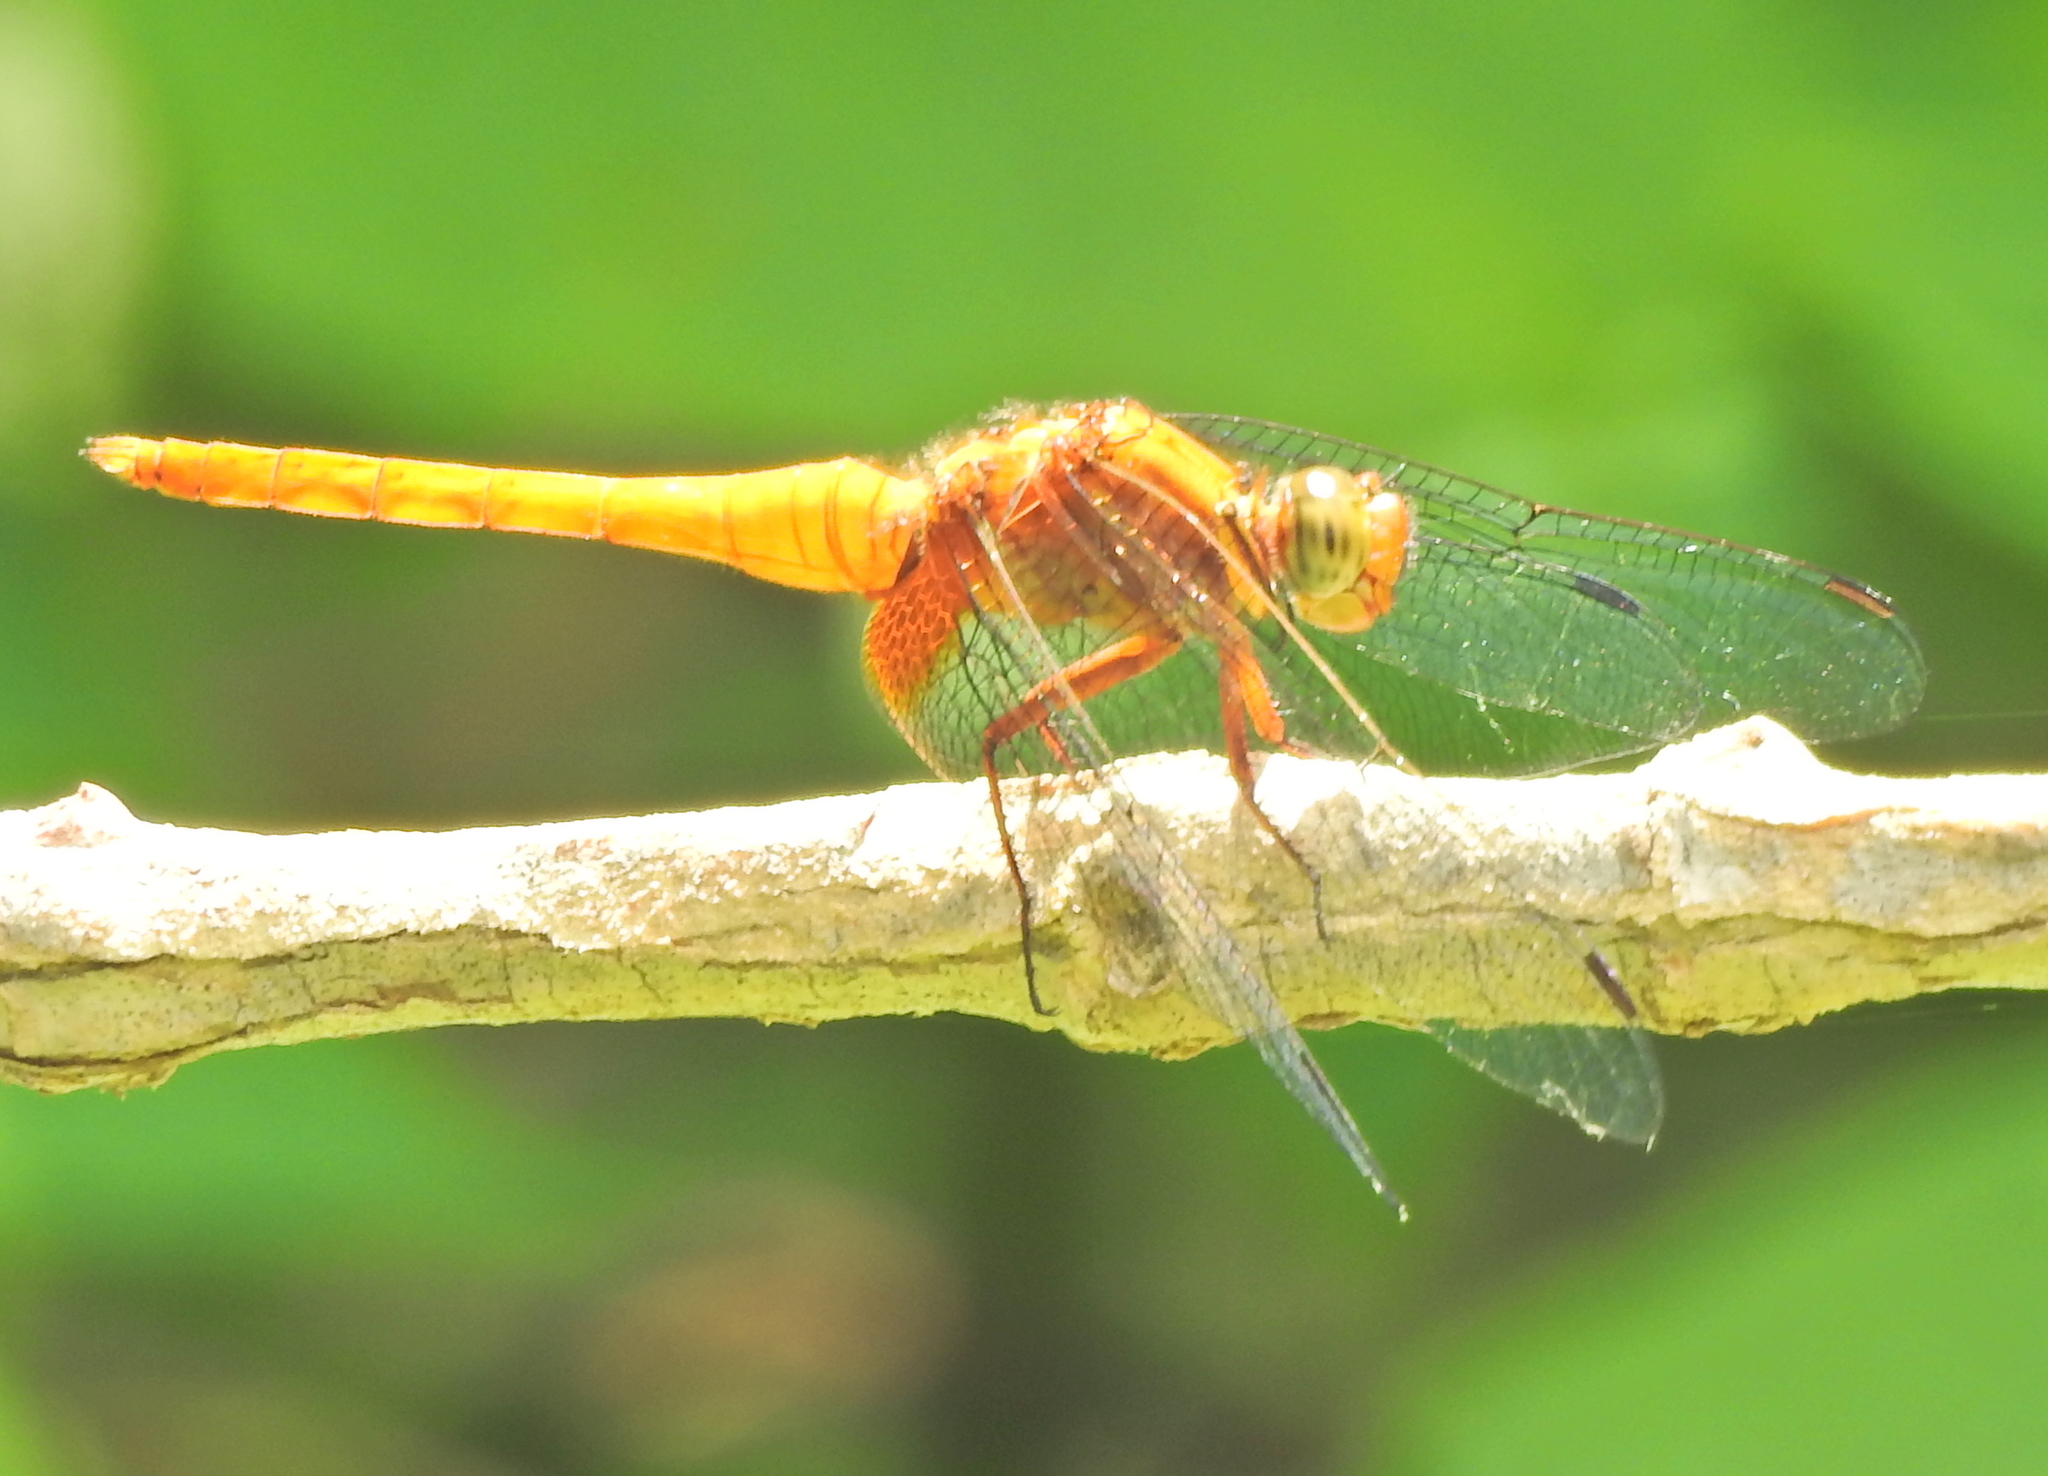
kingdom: Animalia
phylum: Arthropoda
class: Insecta
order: Odonata
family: Libellulidae
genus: Orthetrum
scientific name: Orthetrum testaceum
